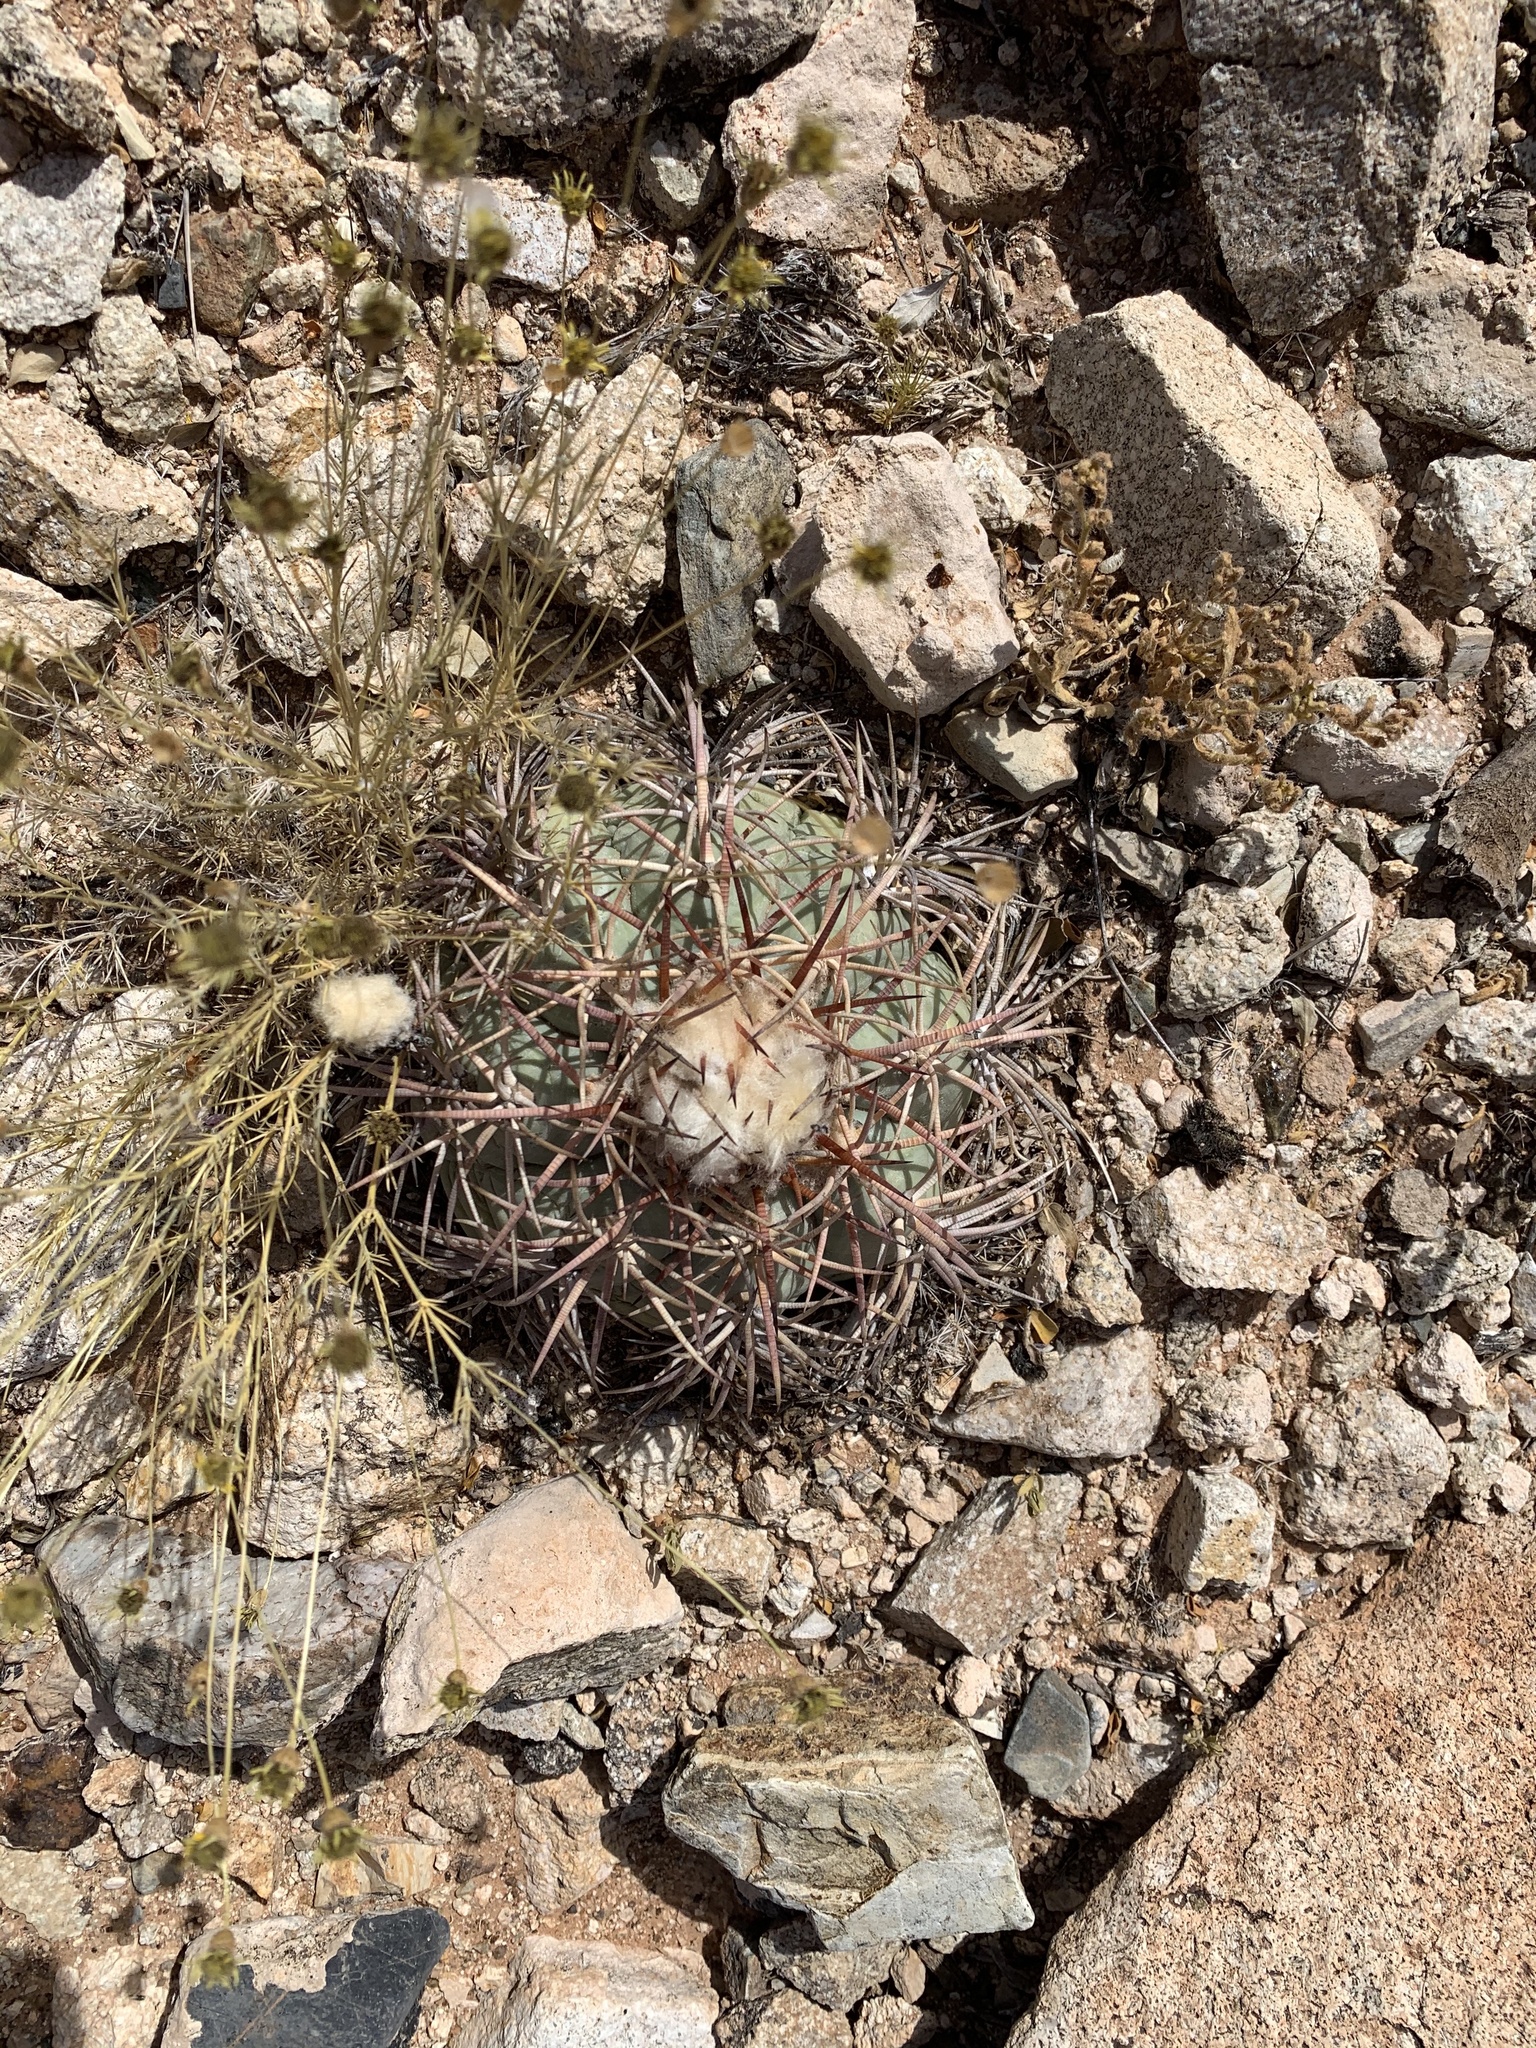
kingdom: Plantae
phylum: Tracheophyta
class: Magnoliopsida
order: Caryophyllales
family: Cactaceae
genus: Echinocactus
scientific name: Echinocactus horizonthalonius
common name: Devilshead
